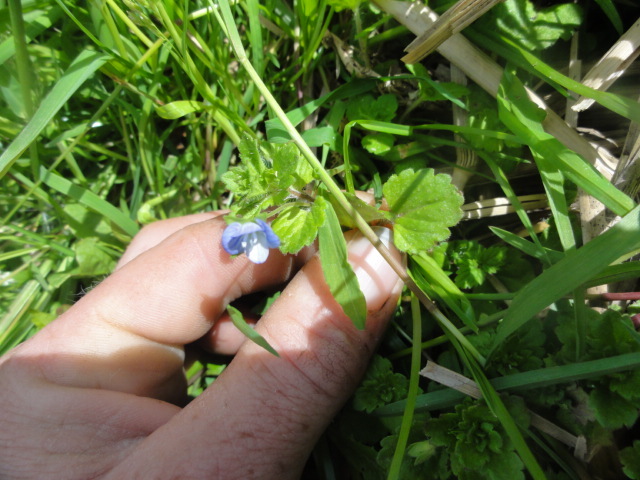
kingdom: Plantae
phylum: Tracheophyta
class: Magnoliopsida
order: Lamiales
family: Plantaginaceae
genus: Veronica
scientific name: Veronica persica
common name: Common field-speedwell
